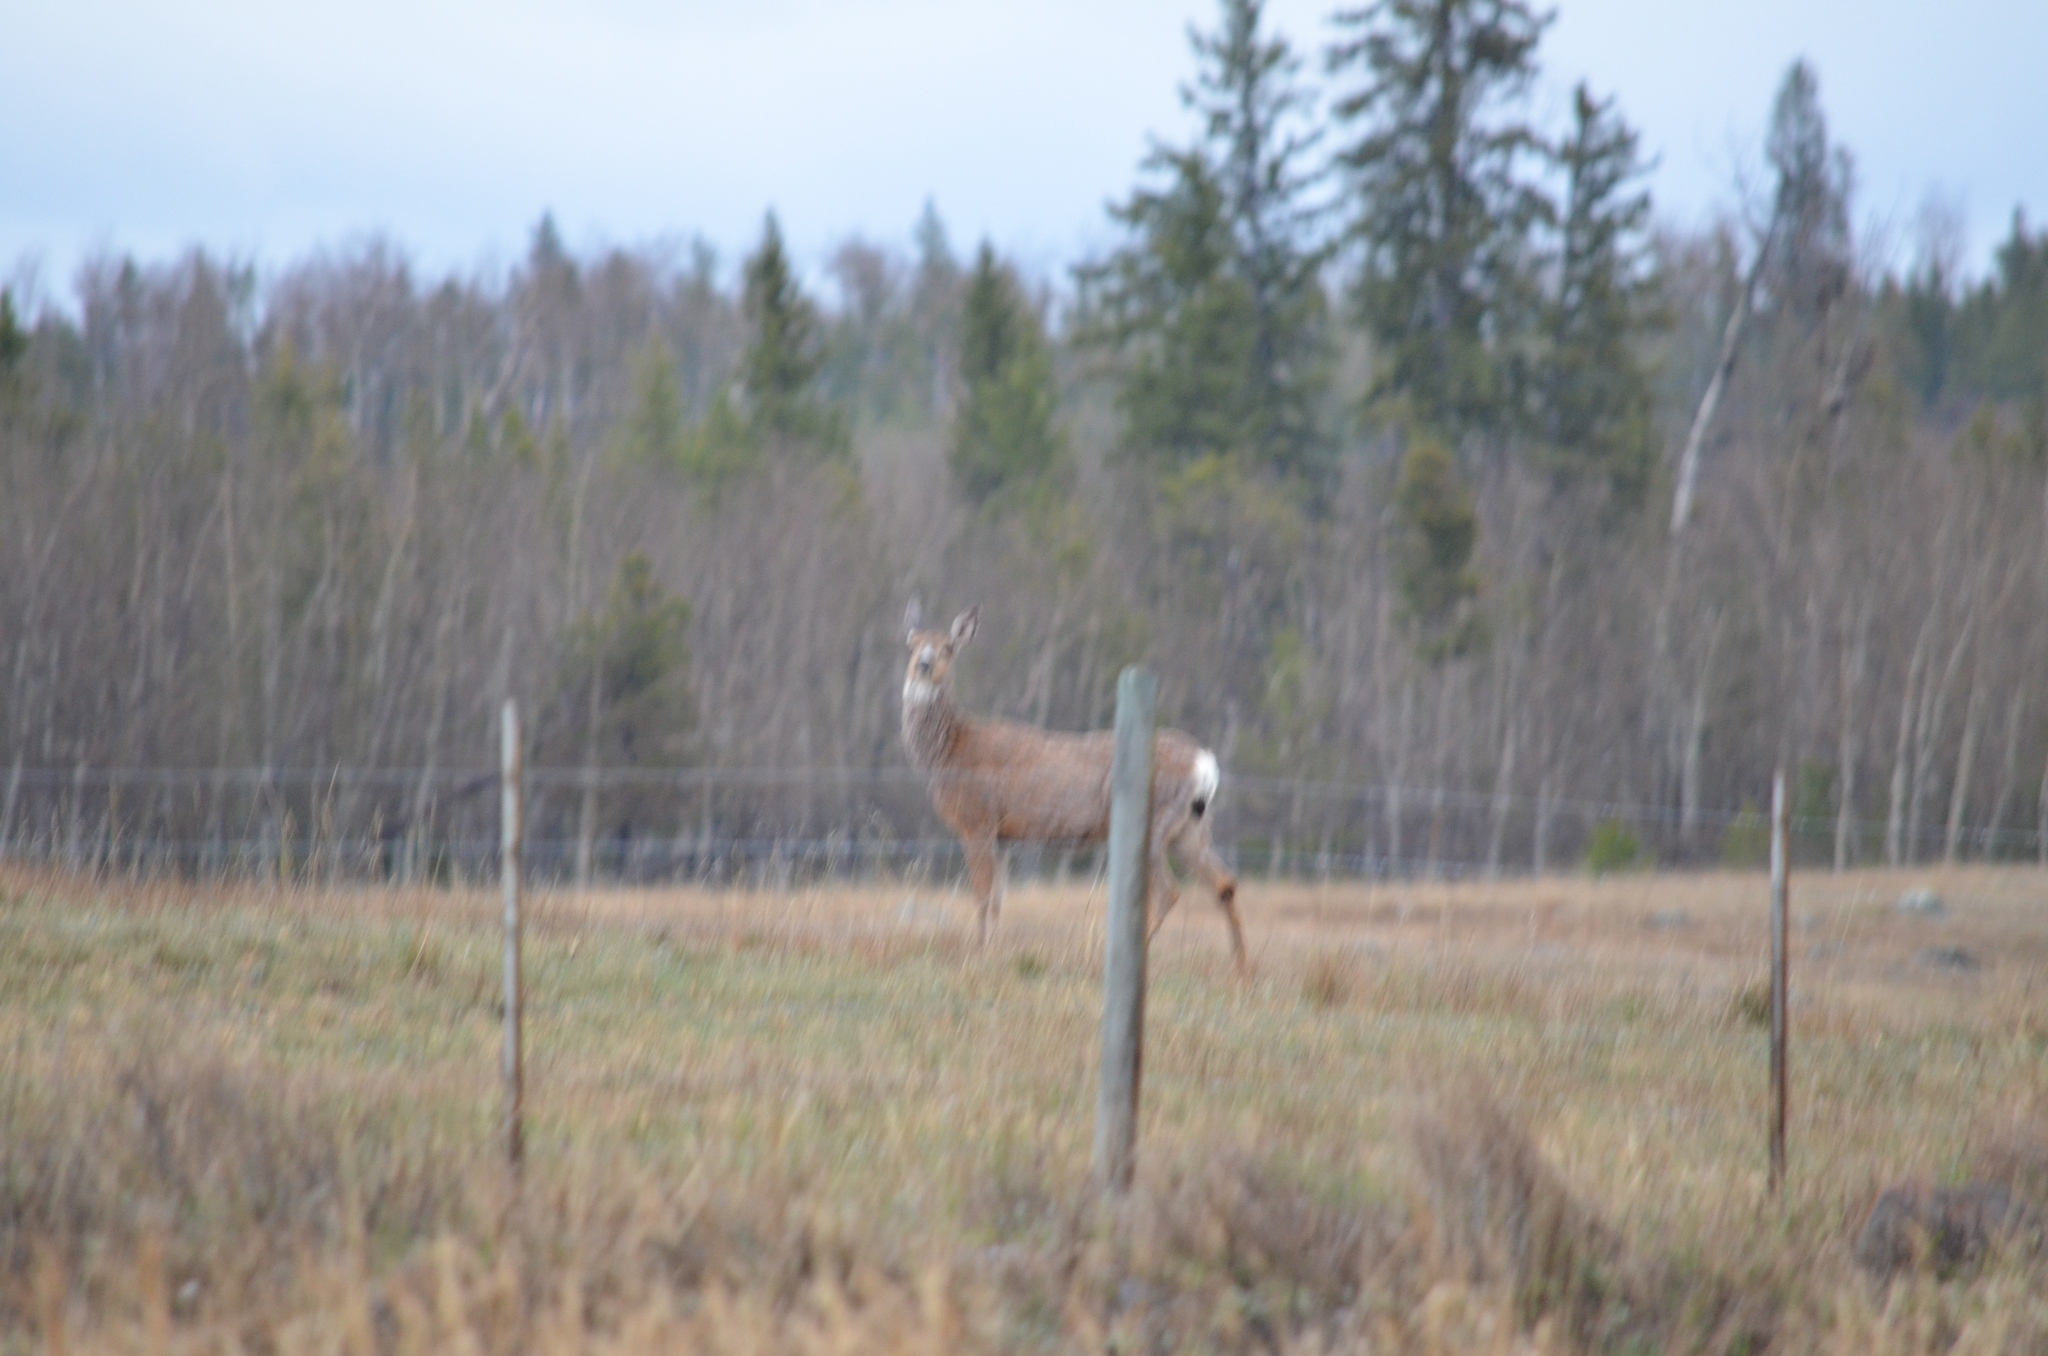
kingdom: Animalia
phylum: Chordata
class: Mammalia
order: Artiodactyla
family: Cervidae
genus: Odocoileus
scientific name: Odocoileus hemionus
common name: Mule deer
